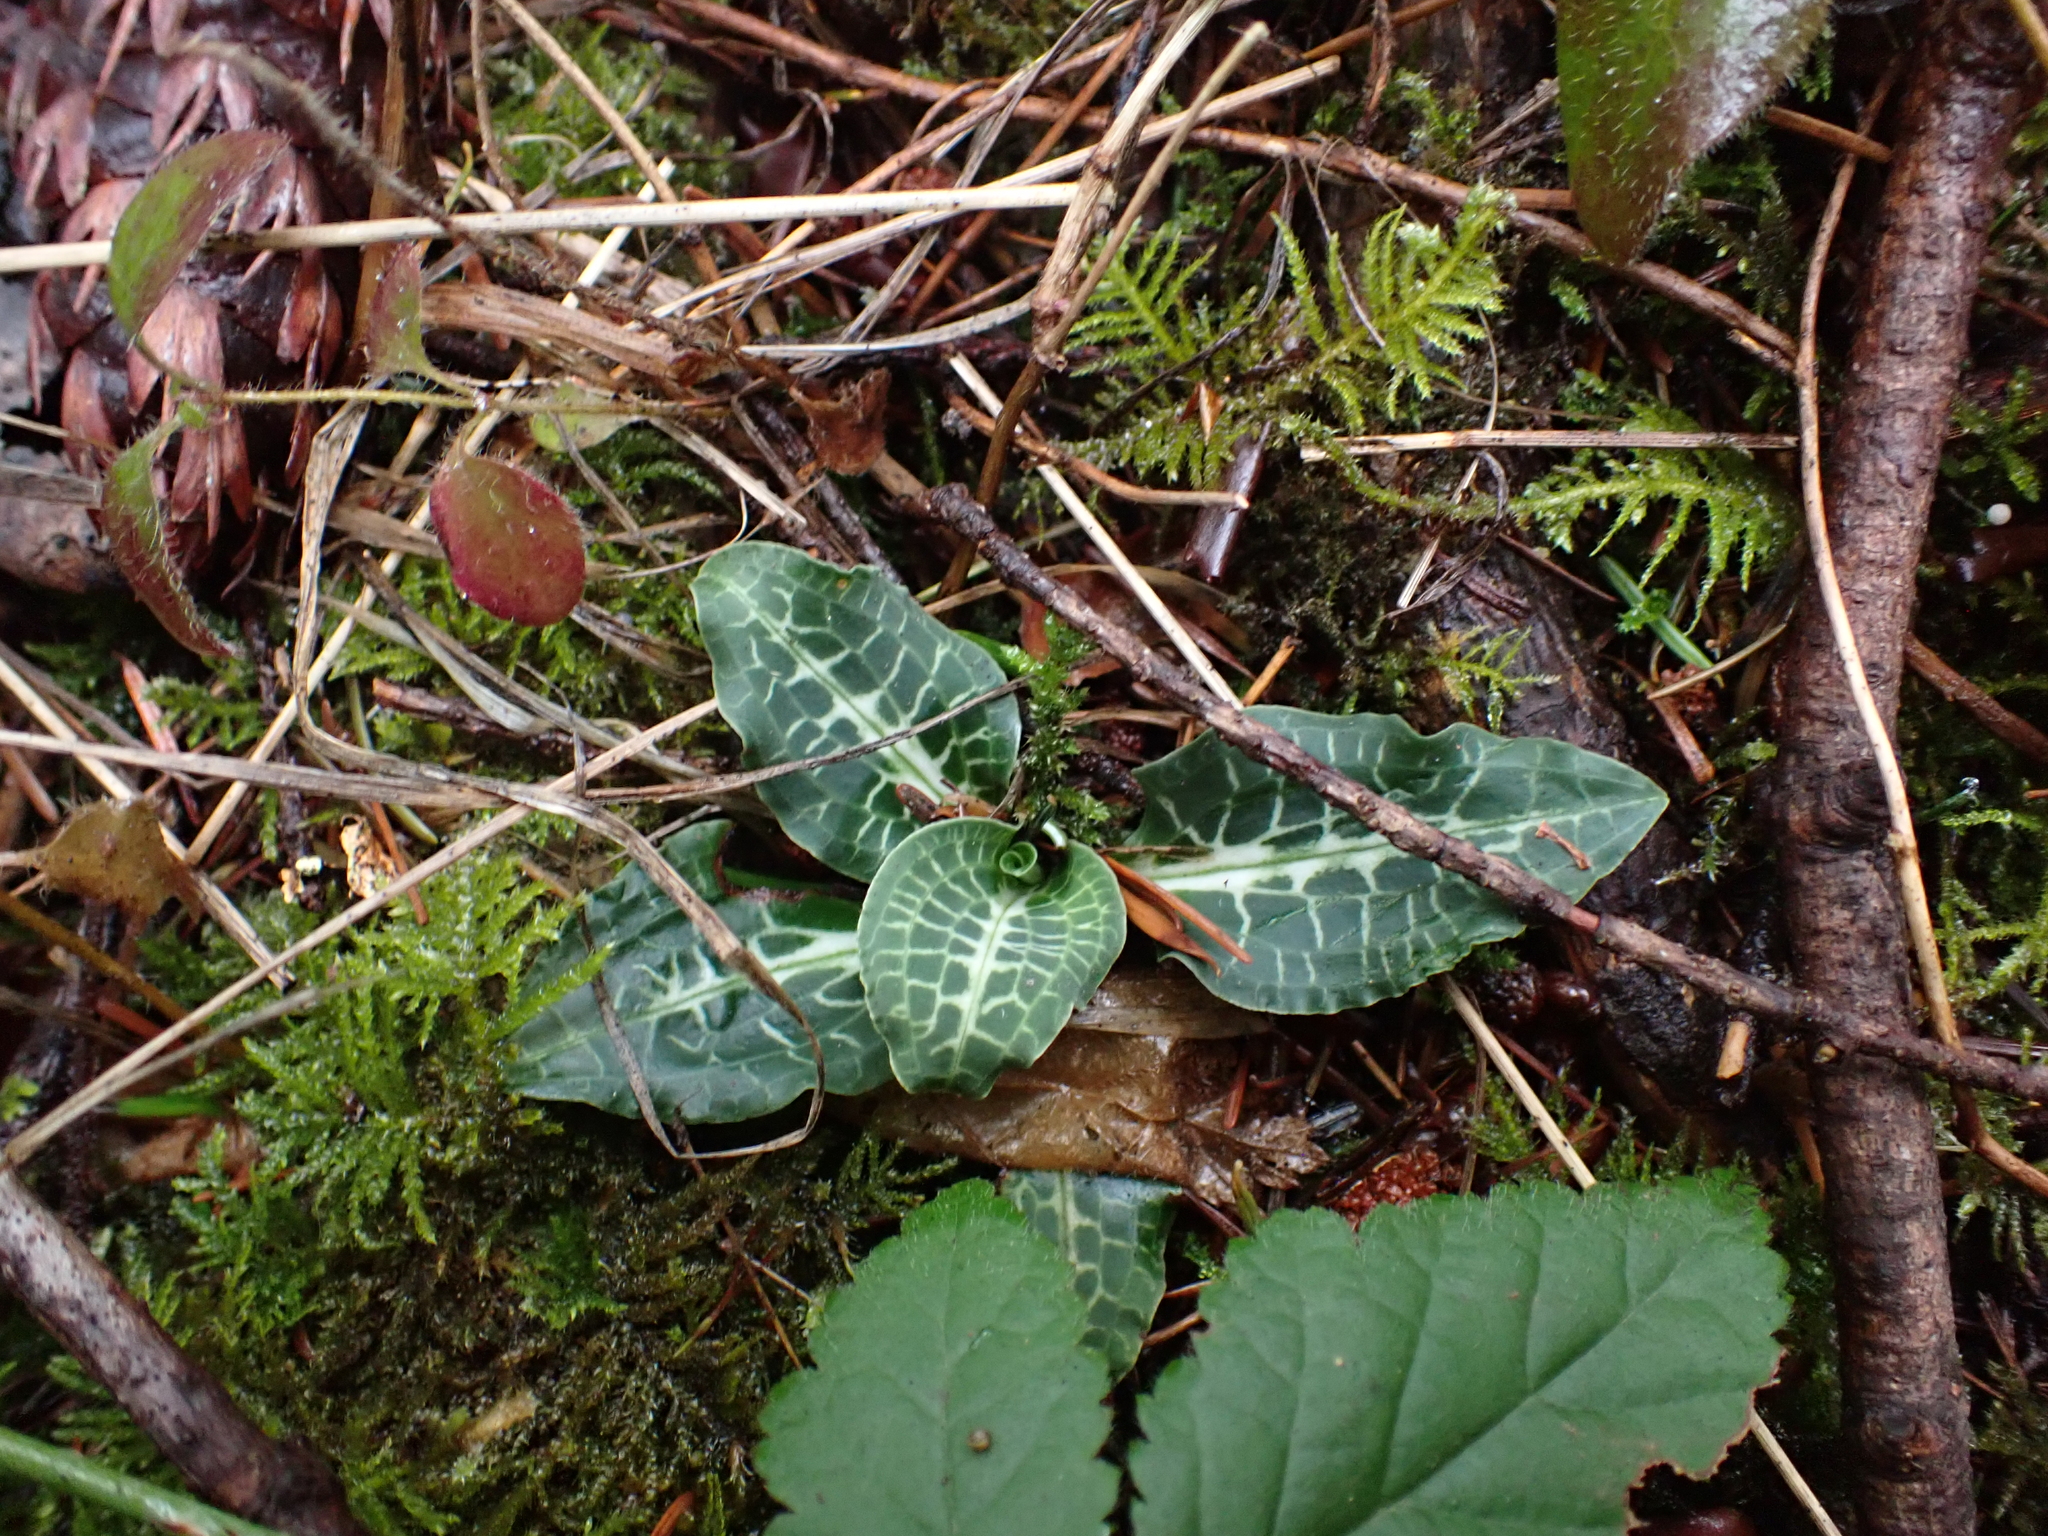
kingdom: Plantae
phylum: Tracheophyta
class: Liliopsida
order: Asparagales
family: Orchidaceae
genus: Goodyera
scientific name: Goodyera oblongifolia
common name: Giant rattlesnake-plantain
